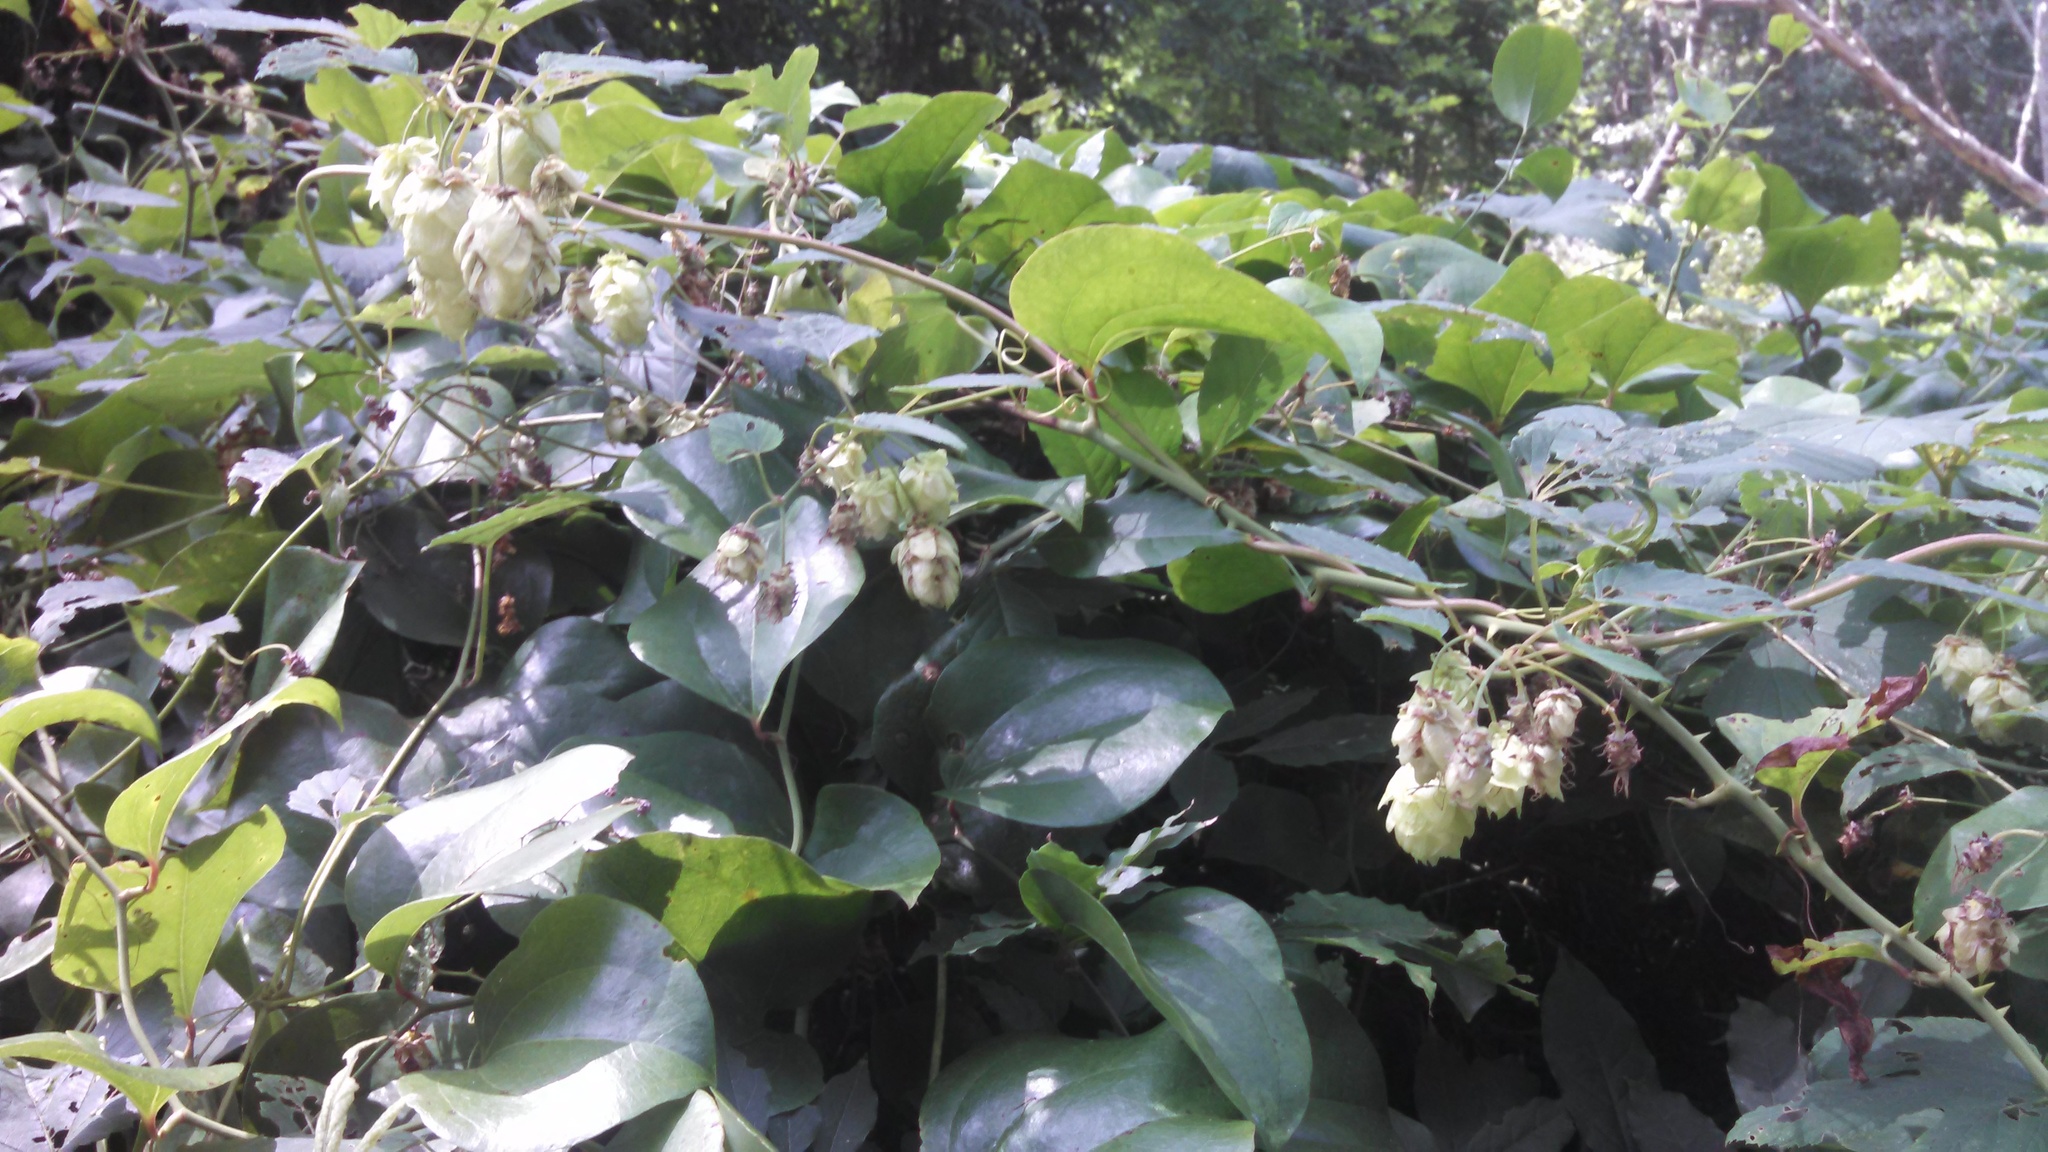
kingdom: Plantae
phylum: Tracheophyta
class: Magnoliopsida
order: Rosales
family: Cannabaceae
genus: Humulus
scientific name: Humulus lupulus
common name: Hop
